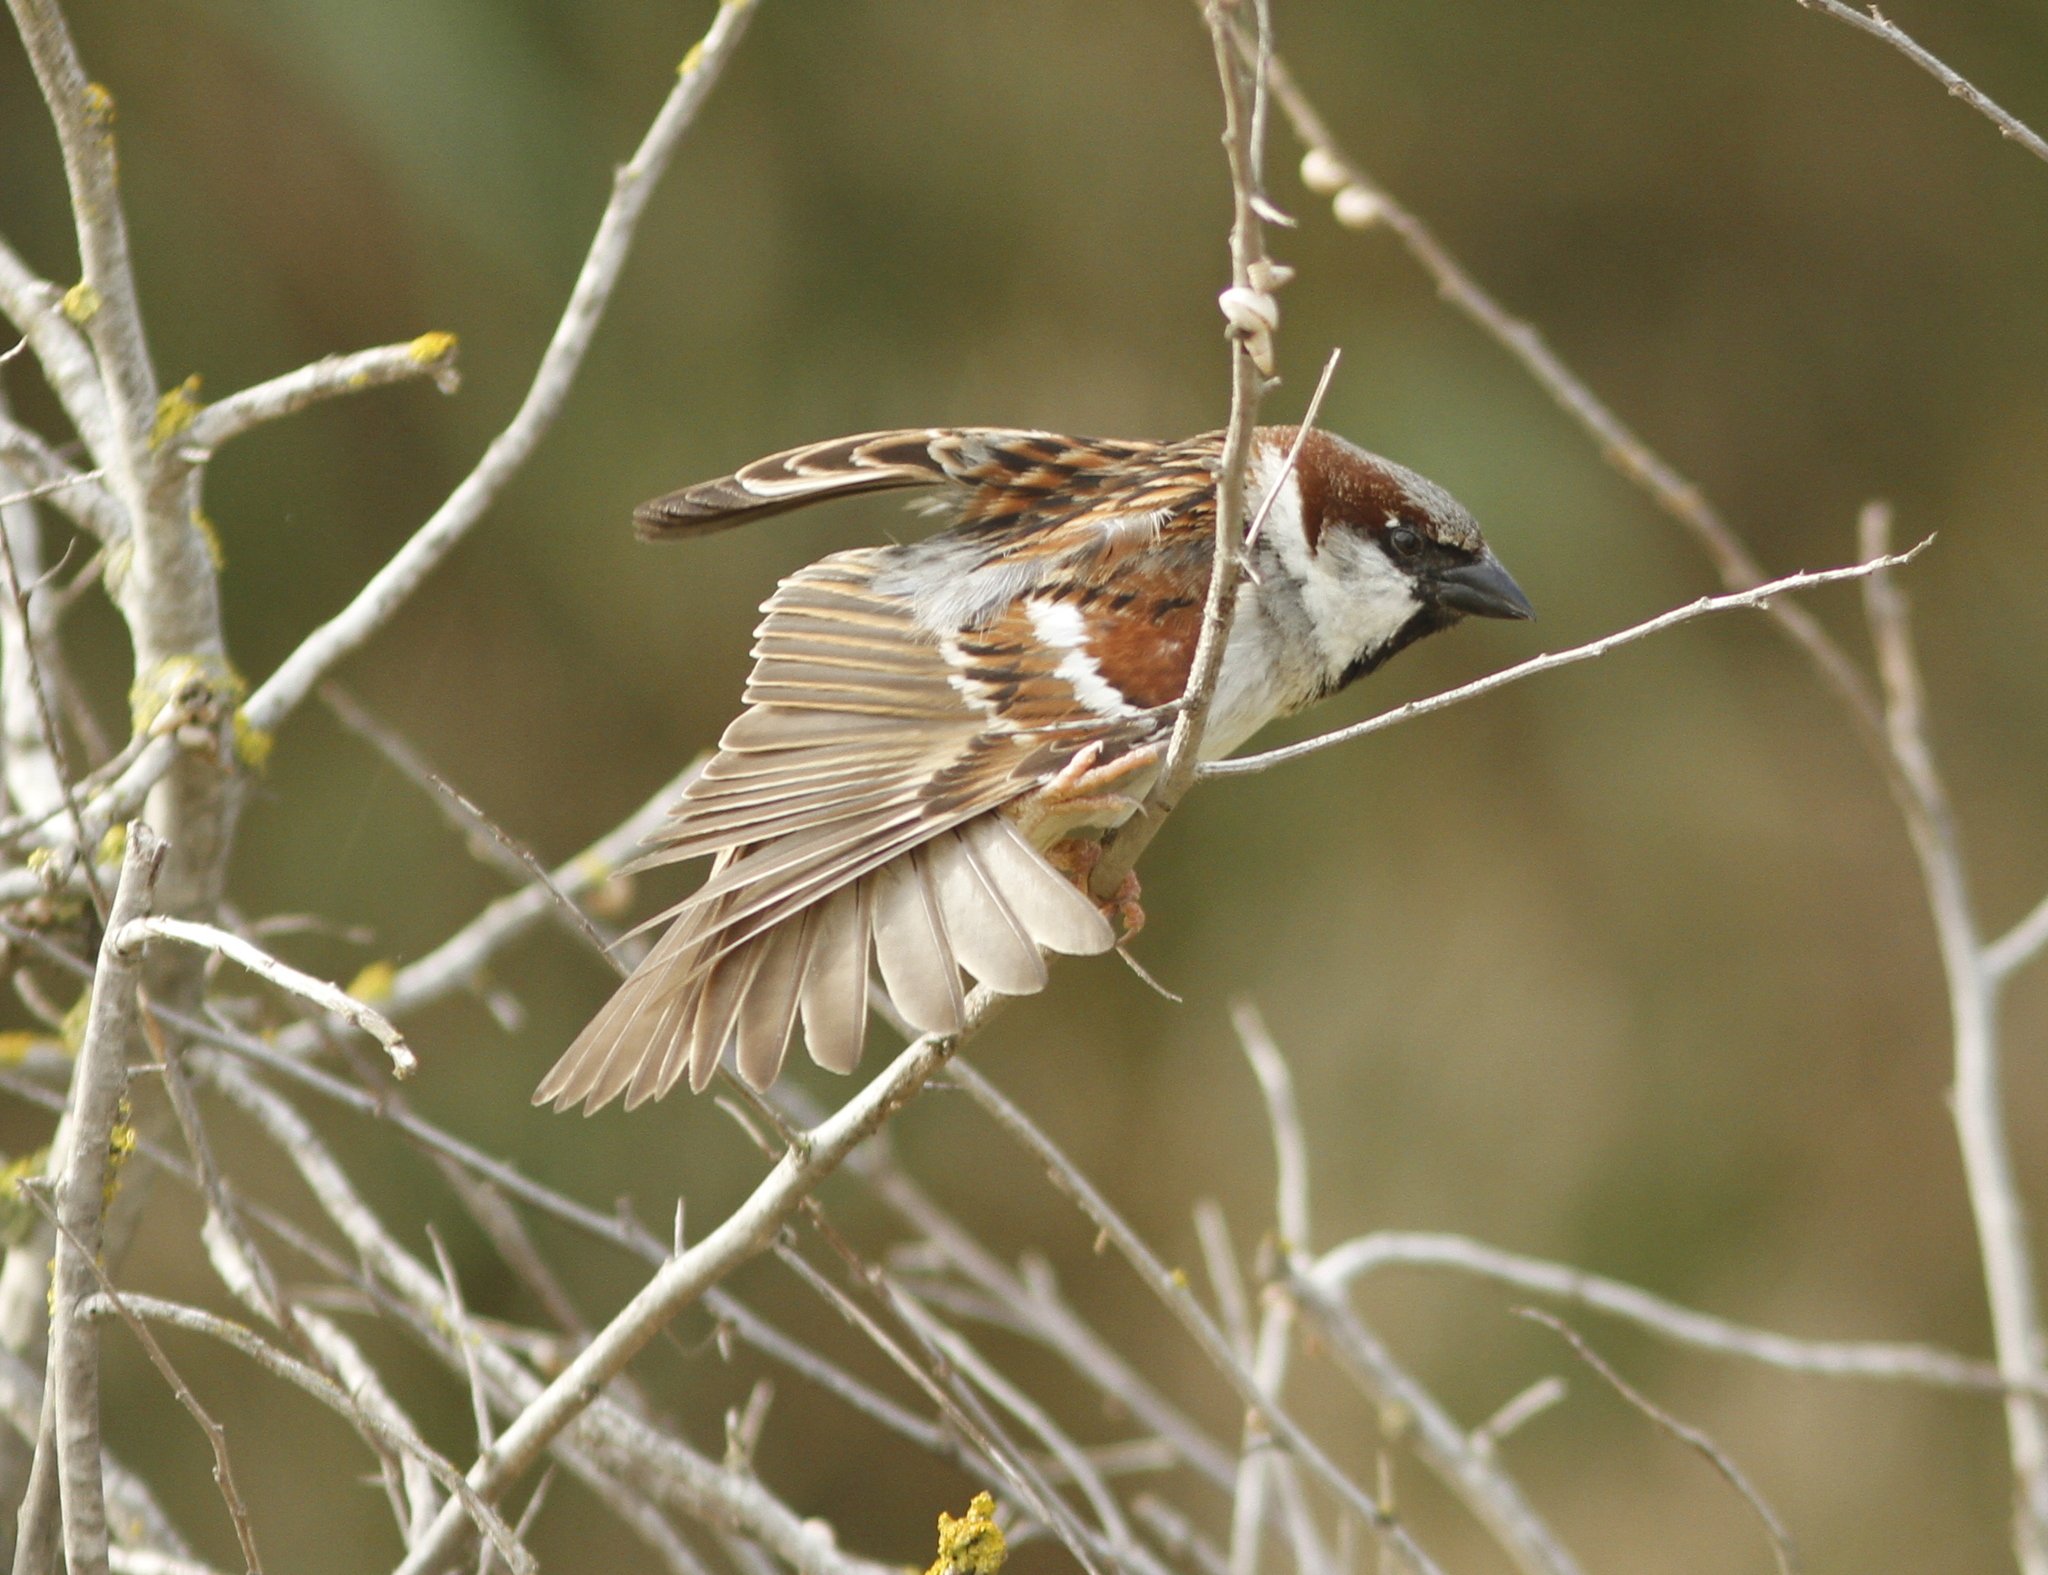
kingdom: Animalia
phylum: Chordata
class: Aves
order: Passeriformes
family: Passeridae
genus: Passer
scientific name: Passer domesticus
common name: House sparrow
